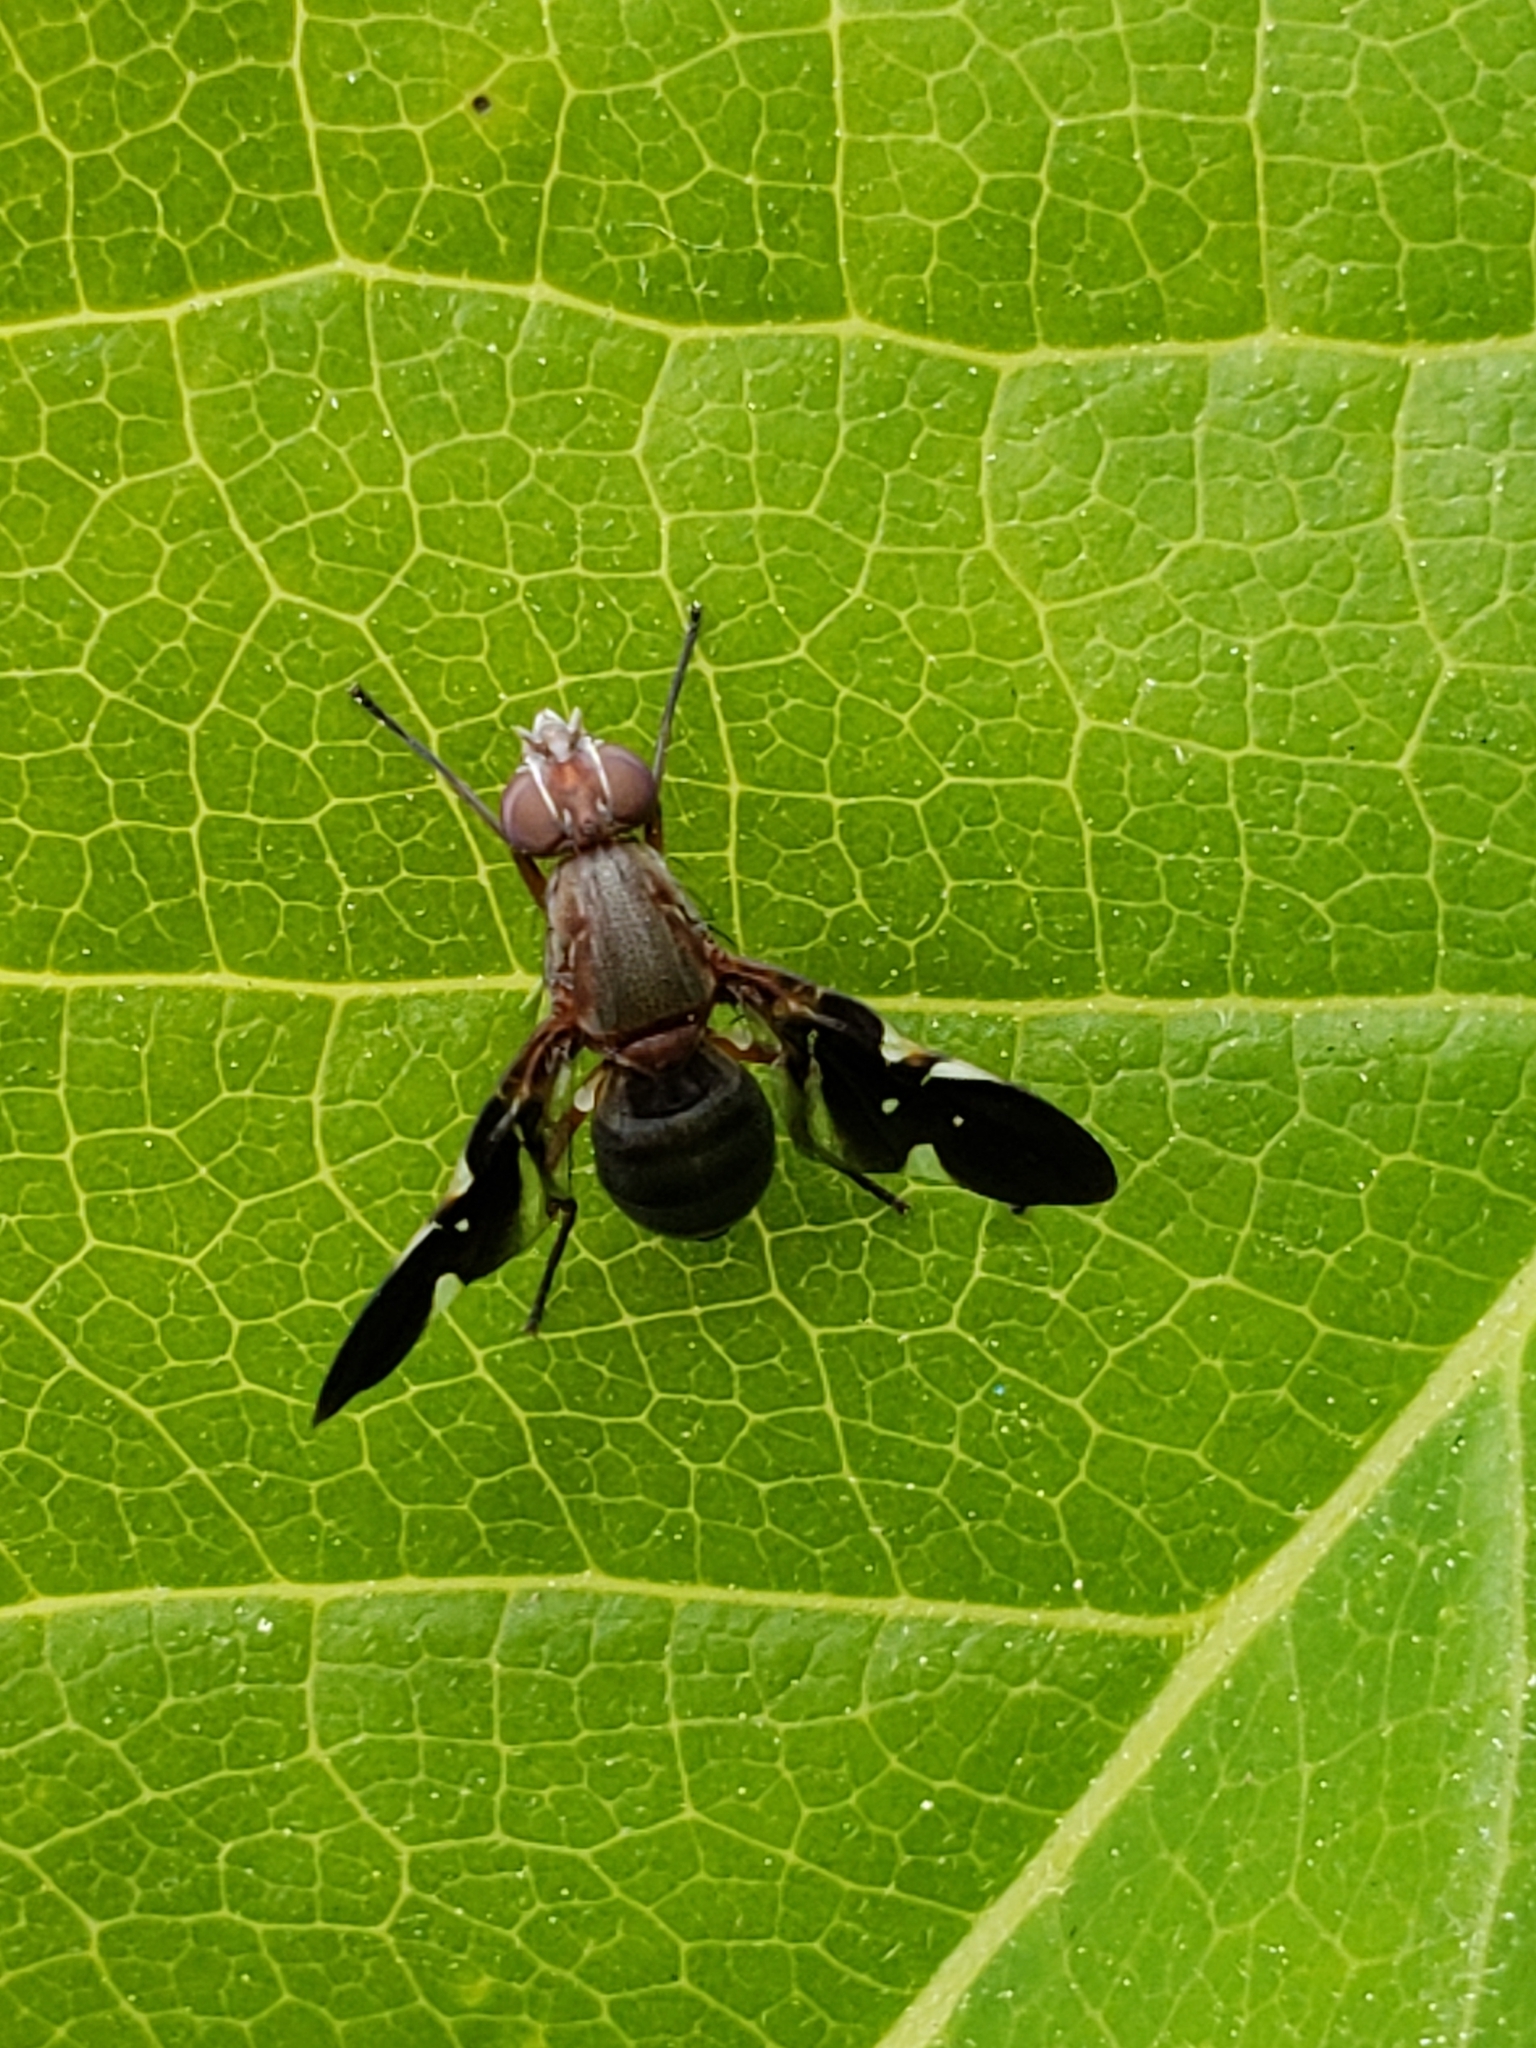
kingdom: Animalia
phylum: Arthropoda
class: Insecta
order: Diptera
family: Ulidiidae
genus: Delphinia
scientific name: Delphinia picta
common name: Common picture-winged fly
